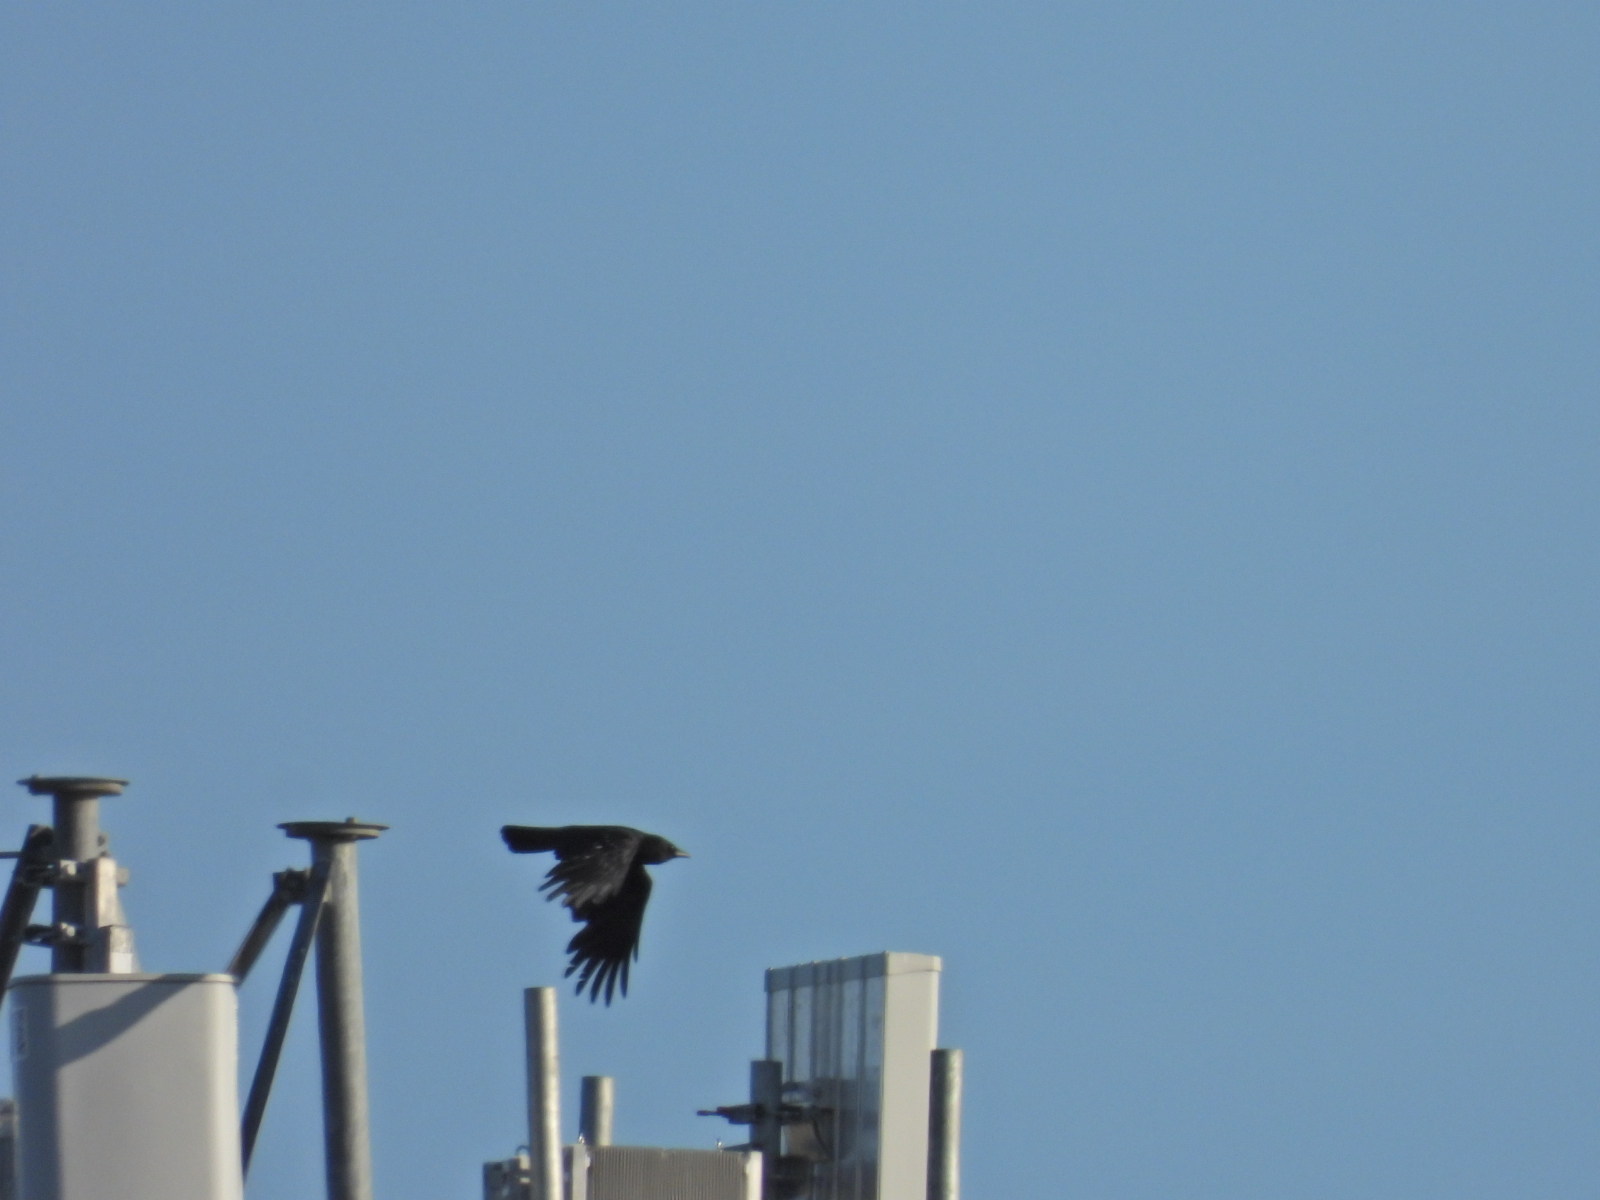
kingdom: Animalia
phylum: Chordata
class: Aves
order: Passeriformes
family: Corvidae
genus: Corvus
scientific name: Corvus brachyrhynchos
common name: American crow
